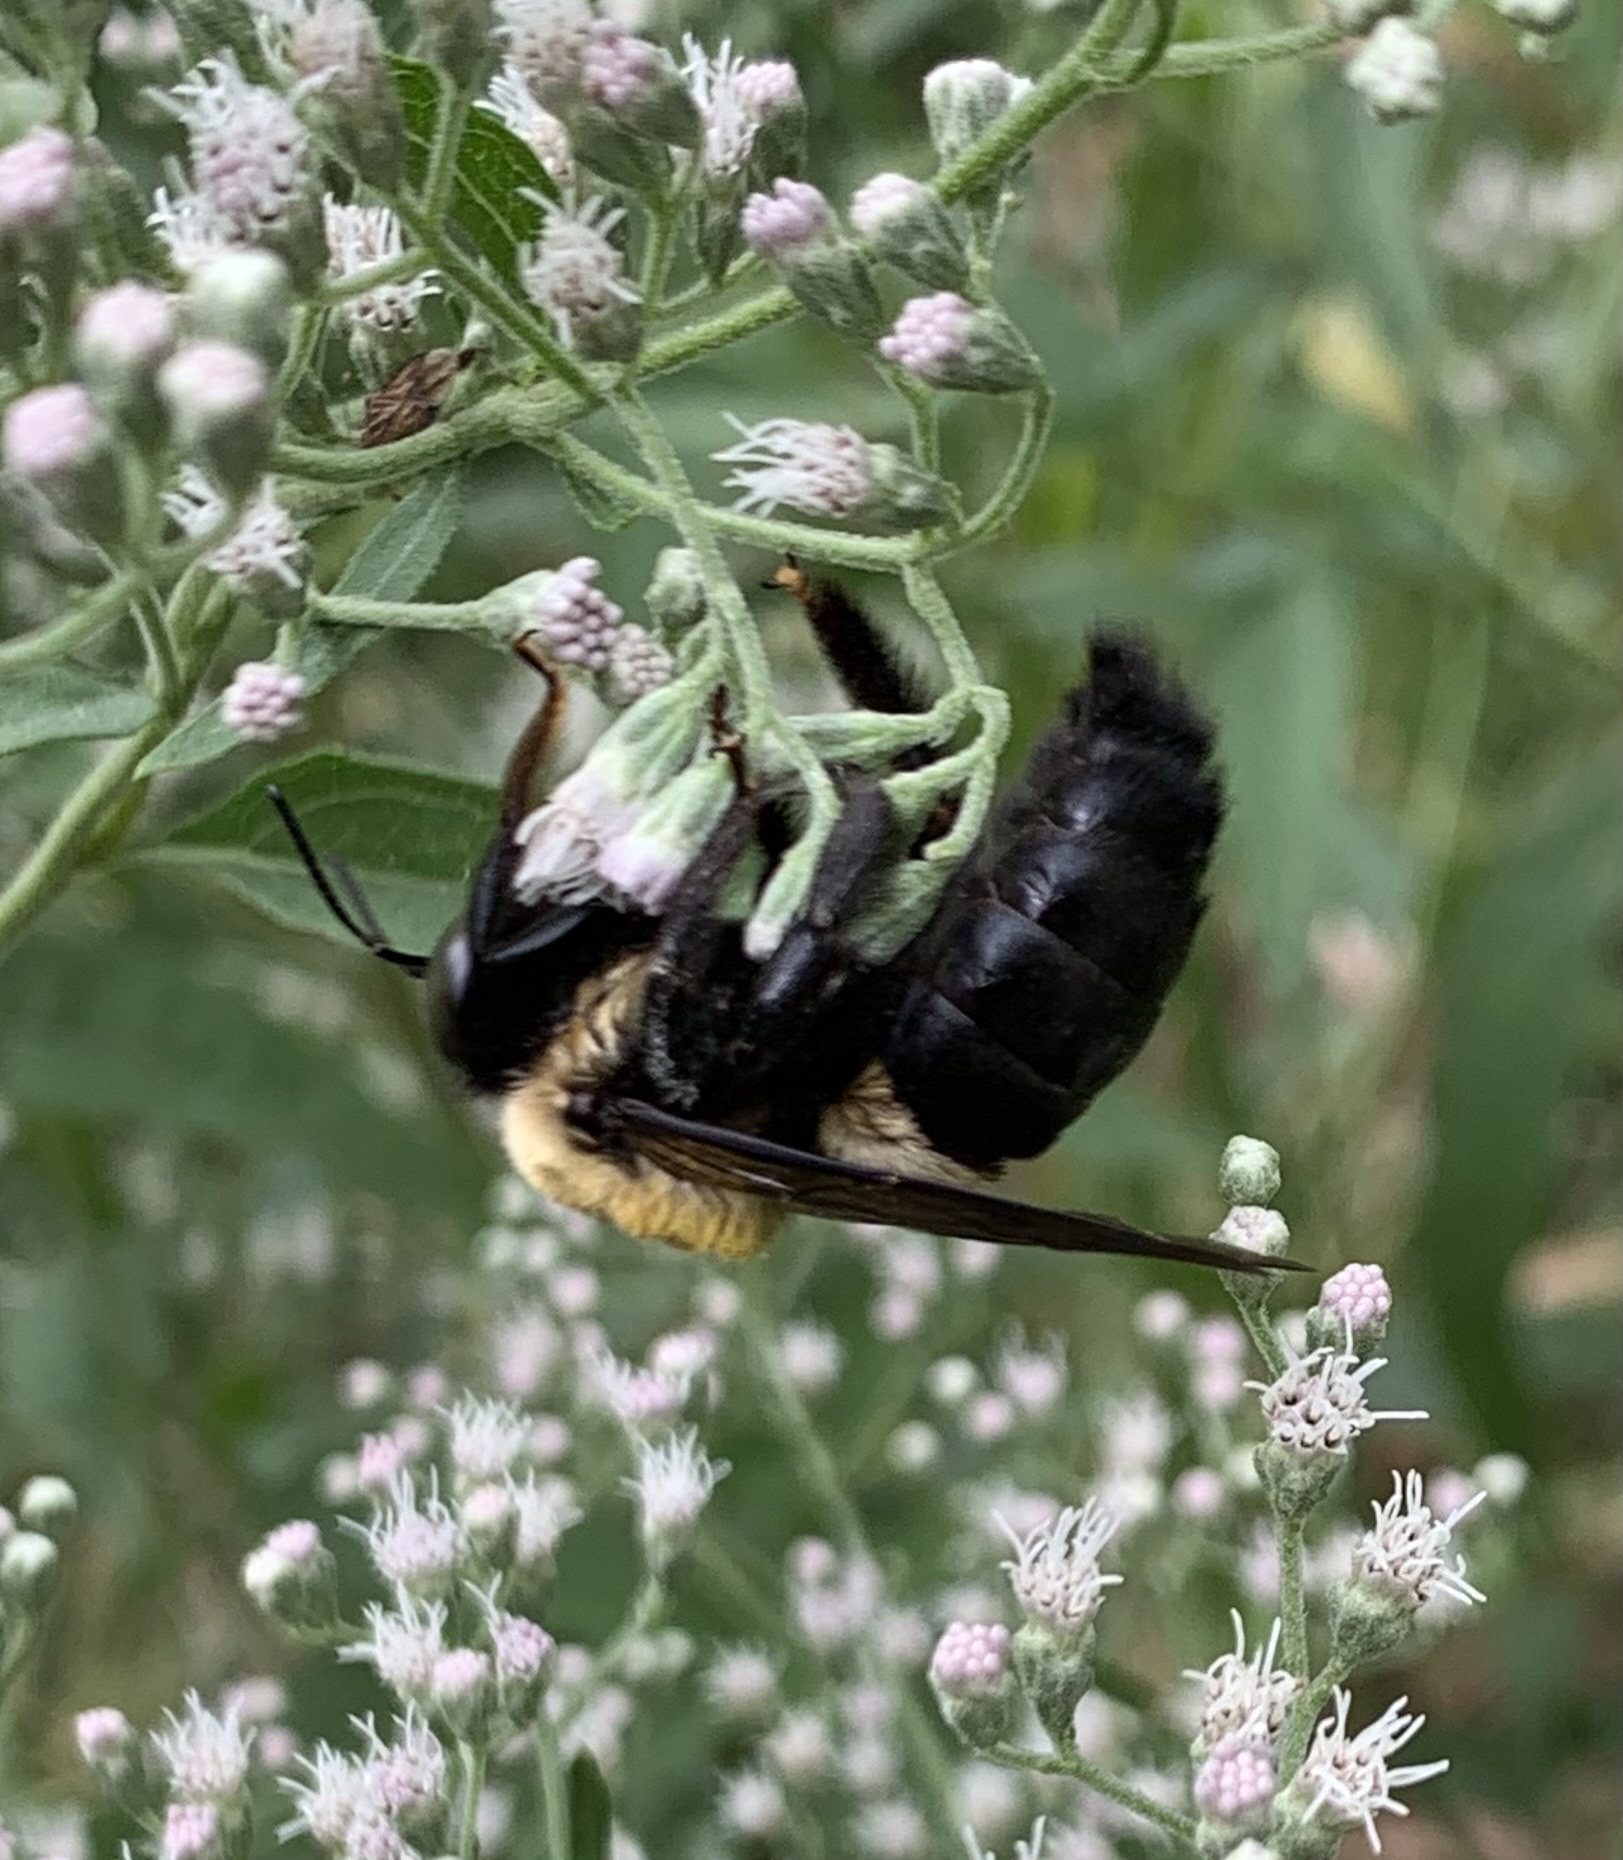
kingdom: Animalia
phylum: Arthropoda
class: Insecta
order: Hymenoptera
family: Apidae
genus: Xylocopa
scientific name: Xylocopa virginica
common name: Carpenter bee
